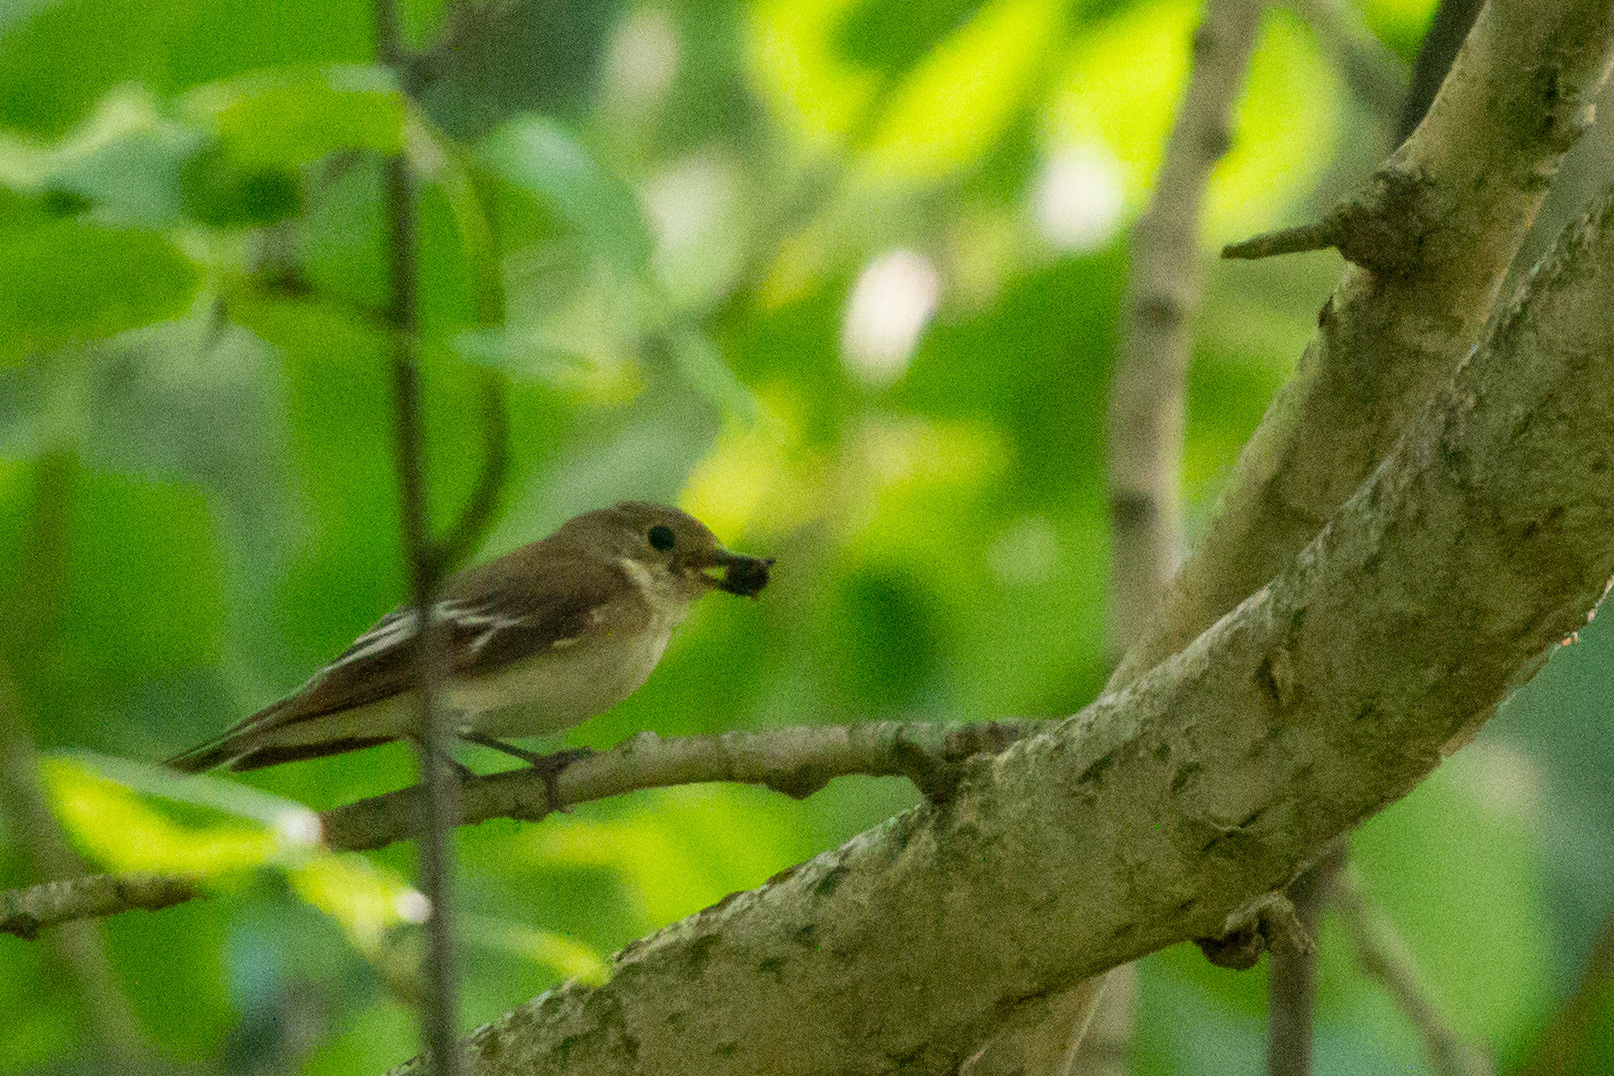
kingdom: Animalia
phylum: Chordata
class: Aves
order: Passeriformes
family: Muscicapidae
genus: Ficedula
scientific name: Ficedula hypoleuca
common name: European pied flycatcher
